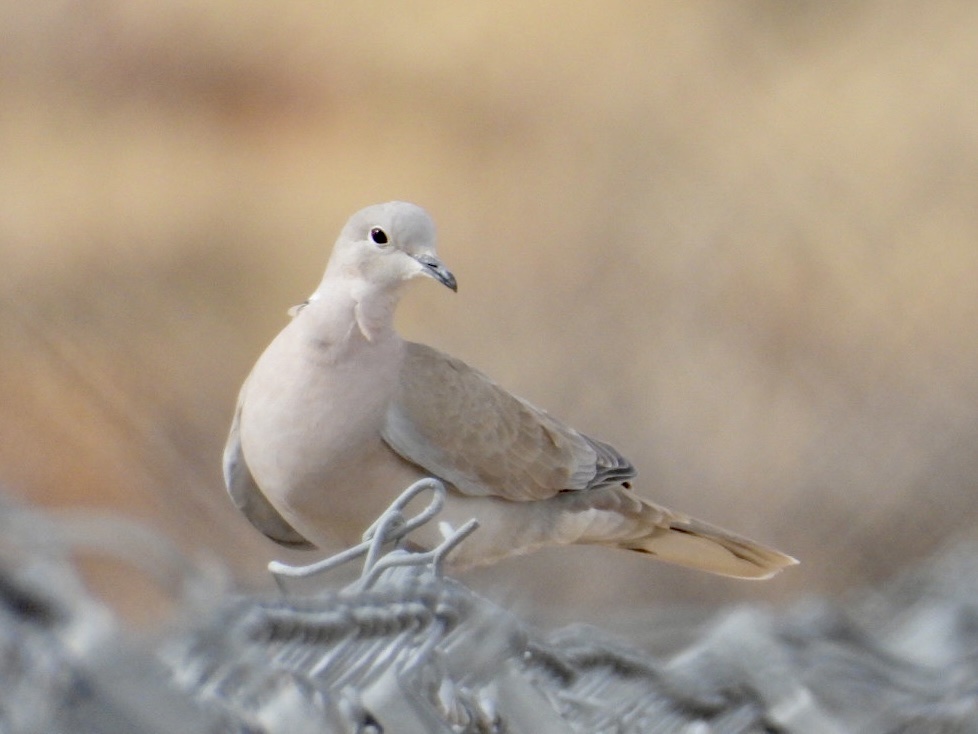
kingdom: Animalia
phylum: Chordata
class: Aves
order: Columbiformes
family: Columbidae
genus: Streptopelia
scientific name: Streptopelia decaocto
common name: Eurasian collared dove
